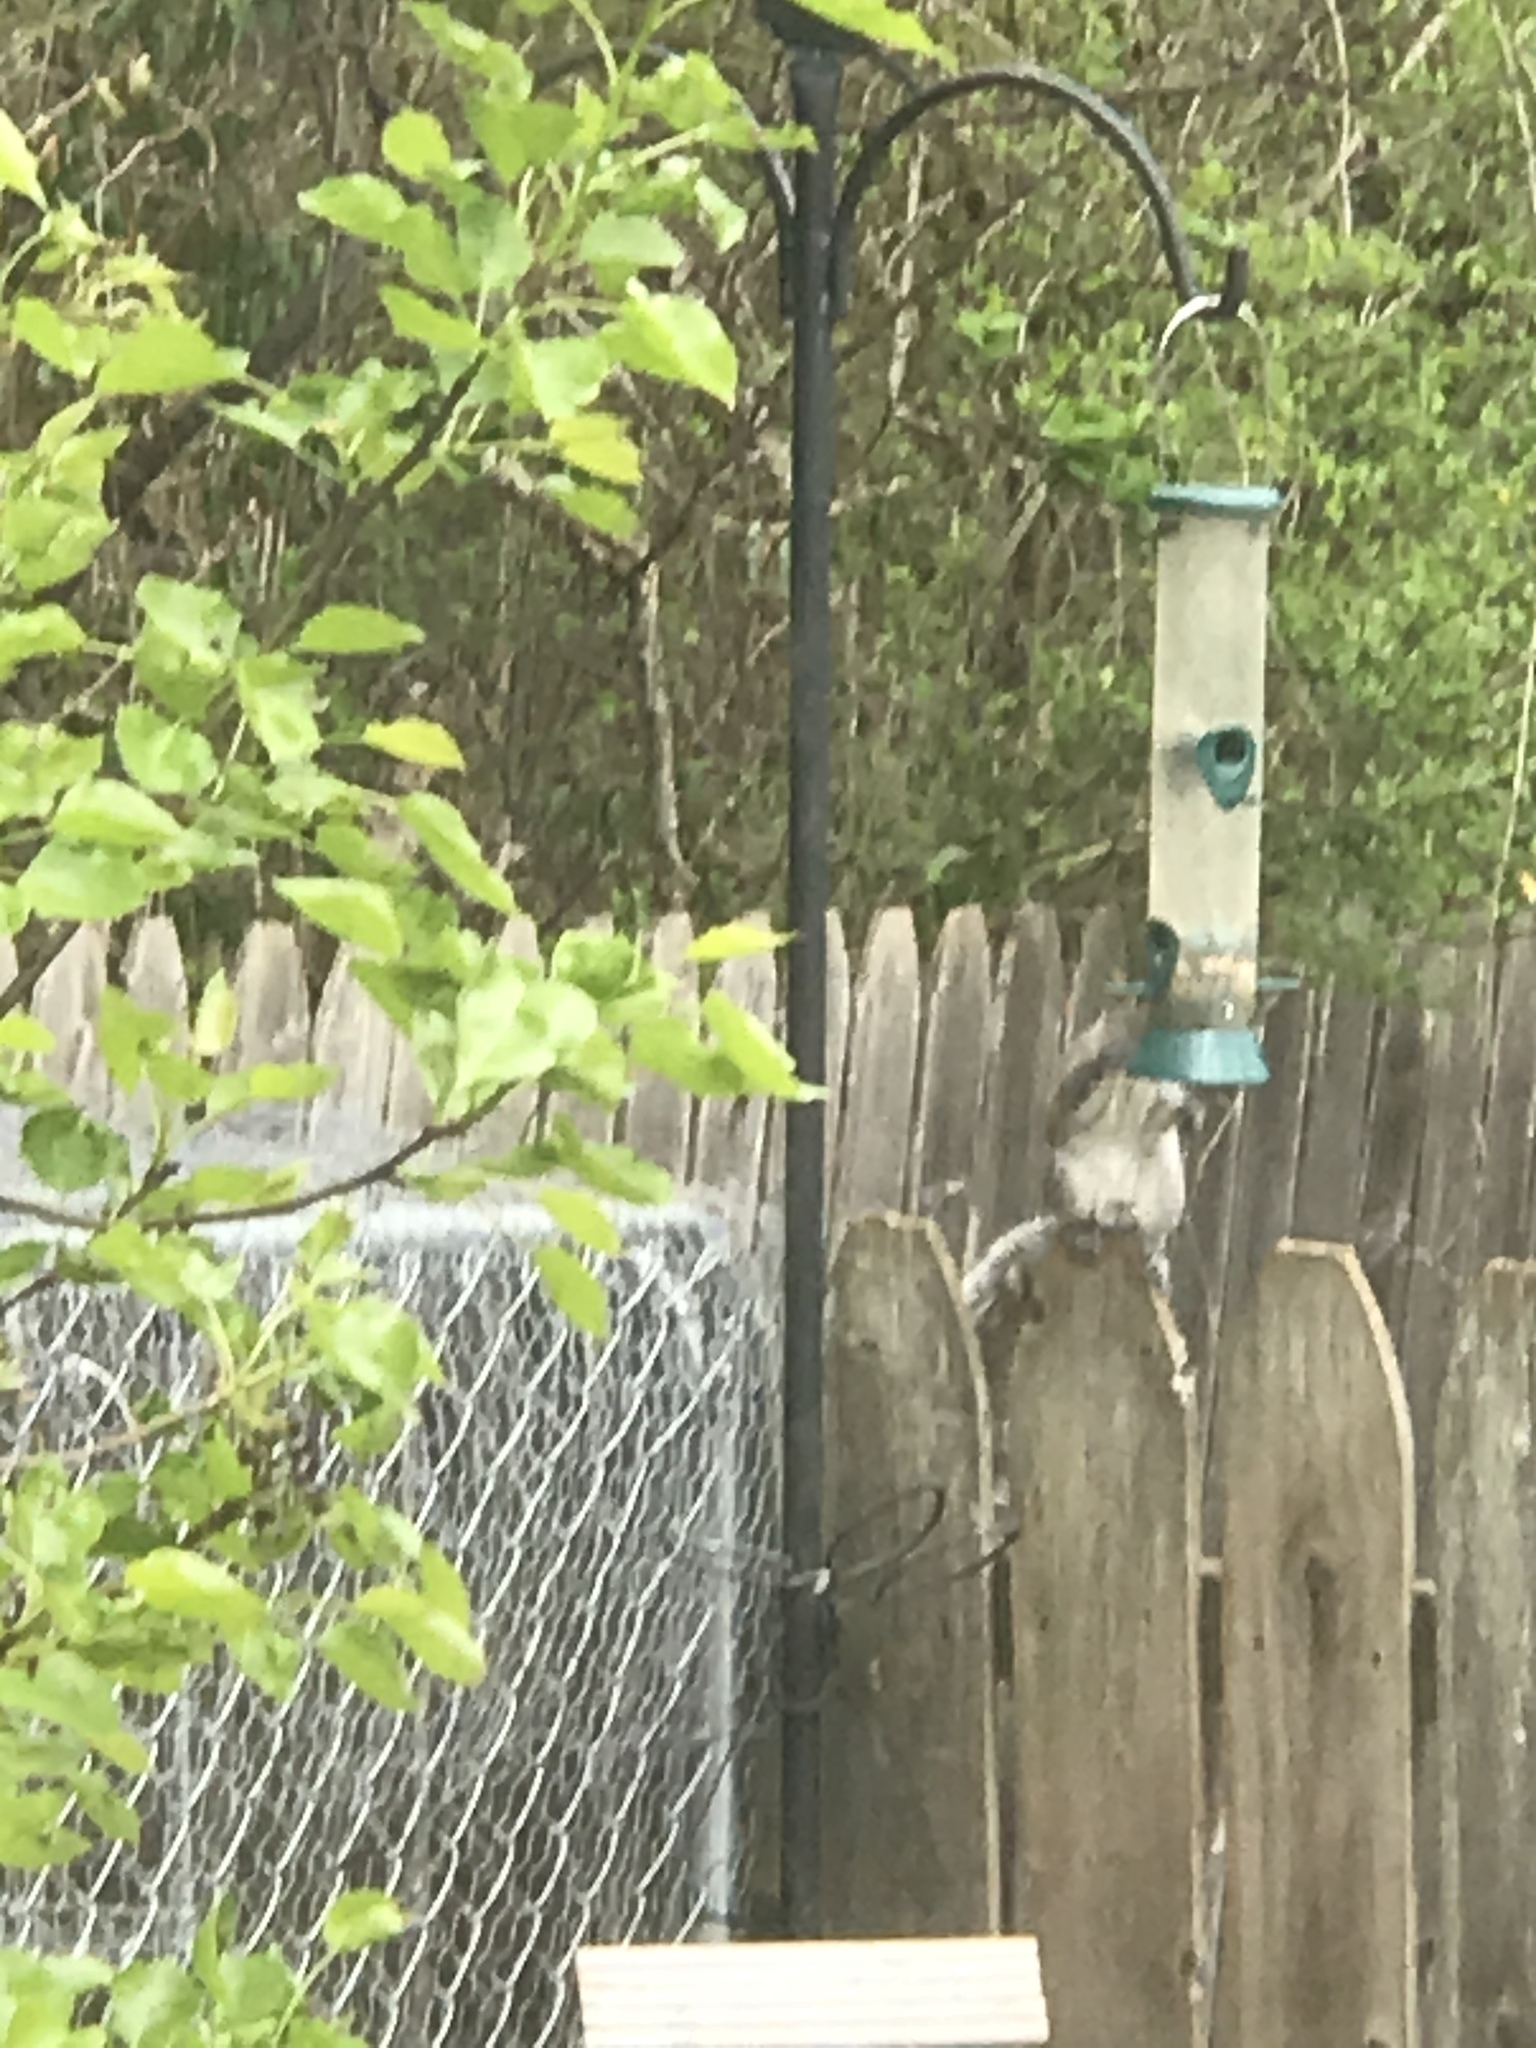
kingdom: Animalia
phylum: Chordata
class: Mammalia
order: Rodentia
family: Sciuridae
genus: Sciurus
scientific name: Sciurus carolinensis
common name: Eastern gray squirrel
